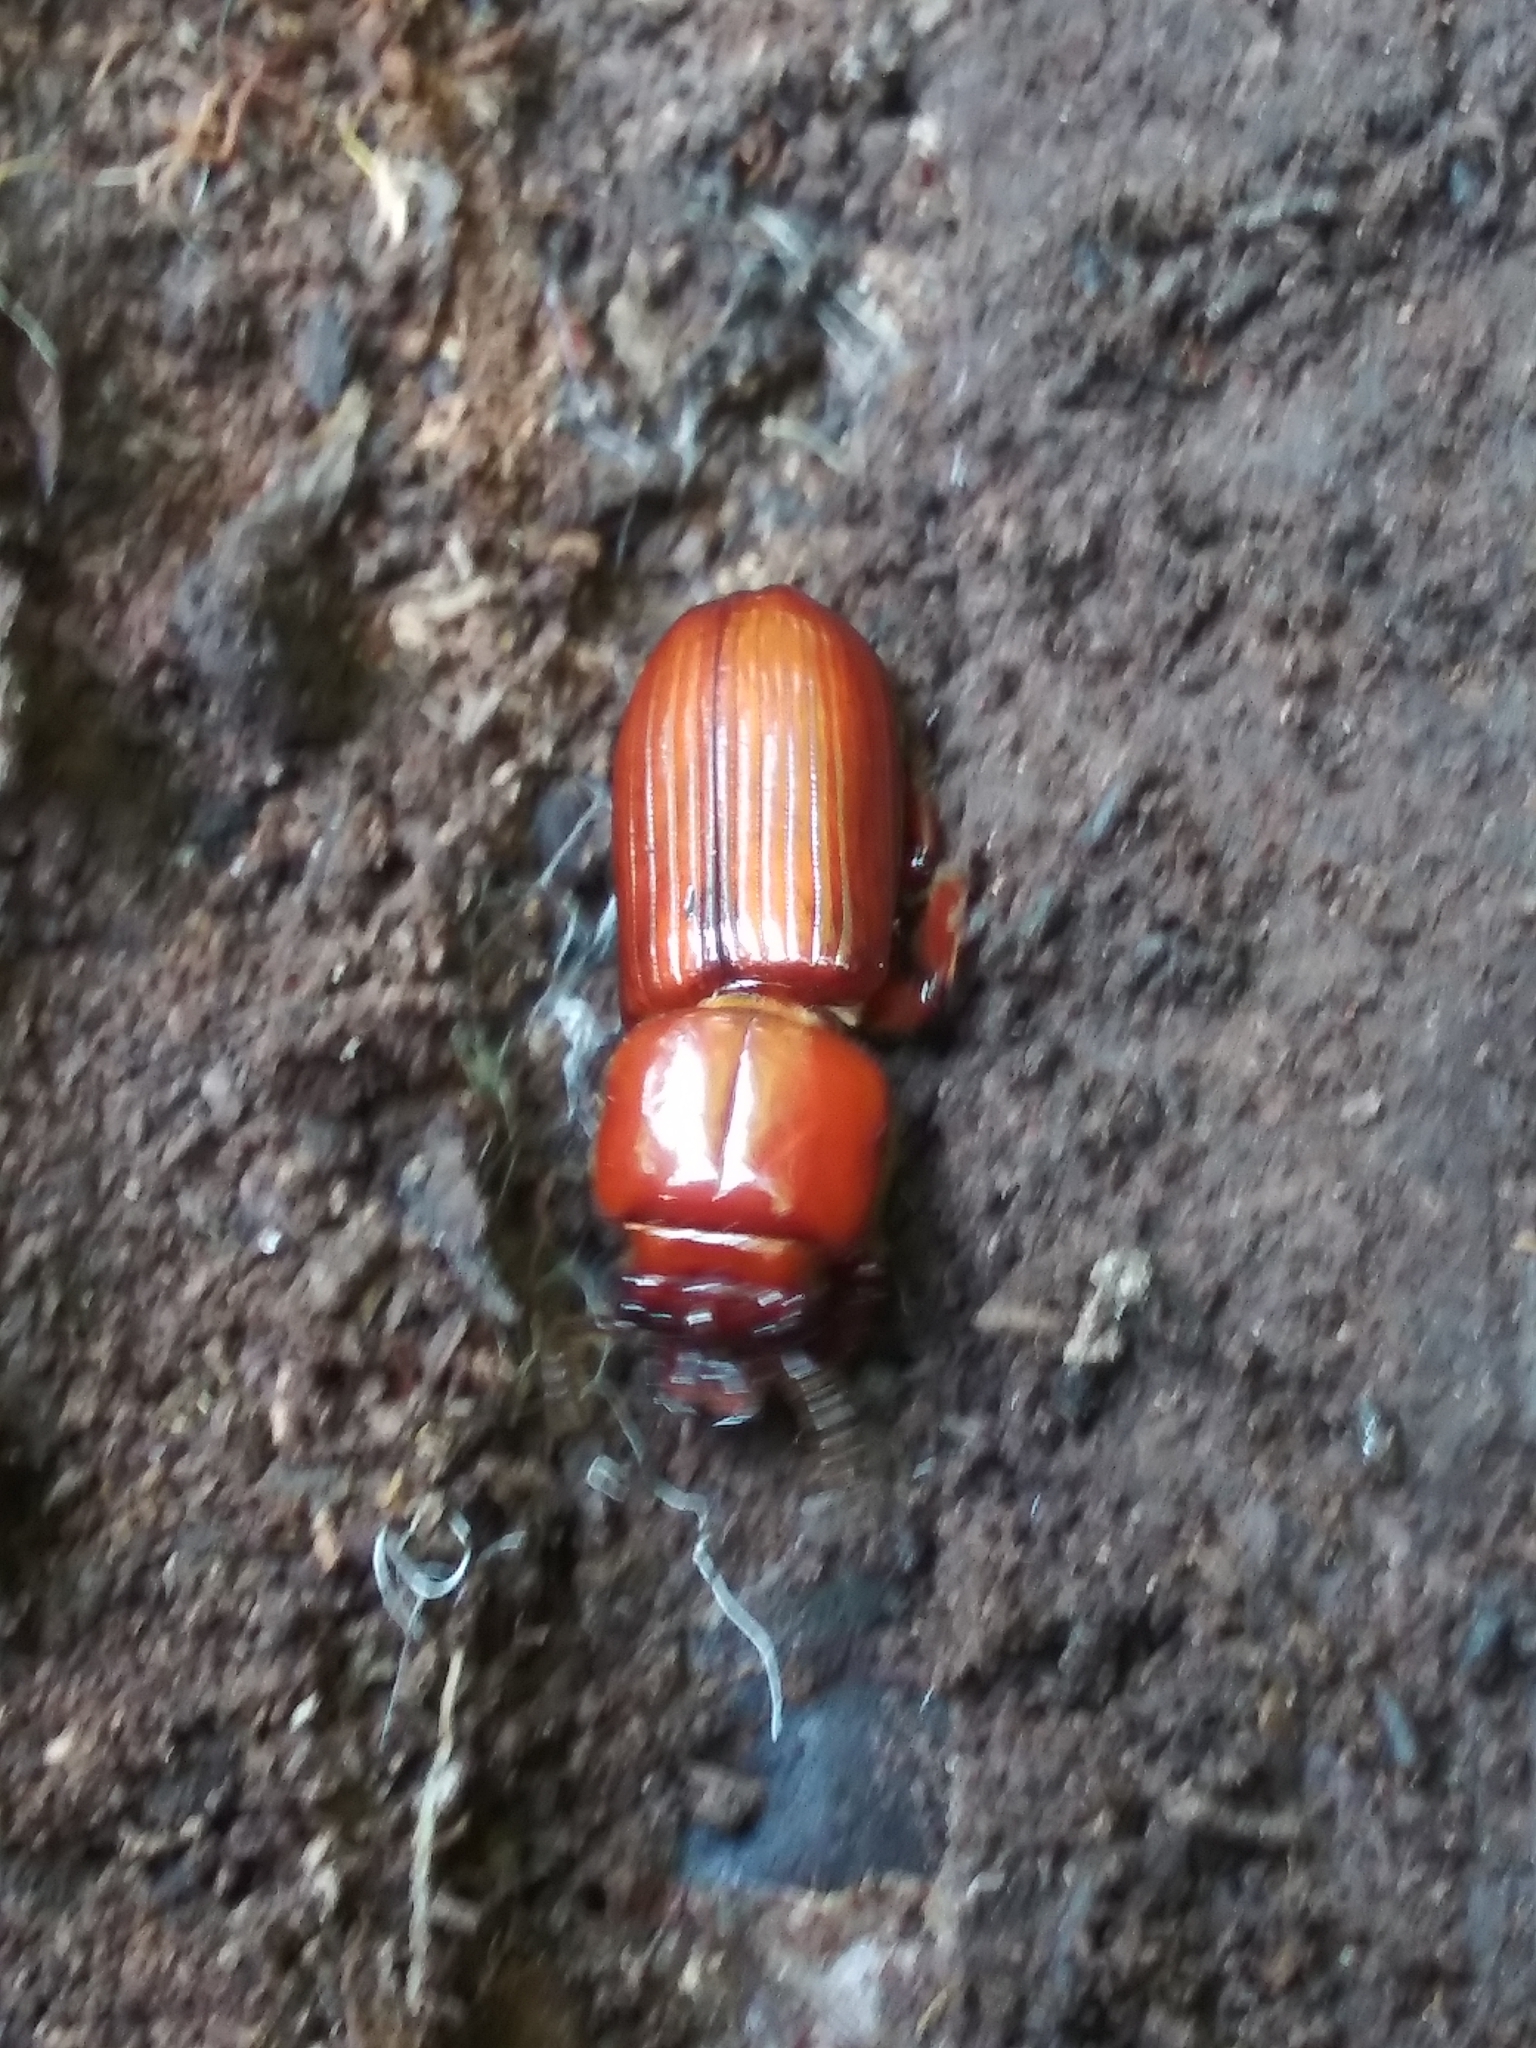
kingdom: Animalia
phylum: Arthropoda
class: Insecta
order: Coleoptera
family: Passalidae
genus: Odontotaenius
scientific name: Odontotaenius disjunctus
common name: Patent leather beetle
